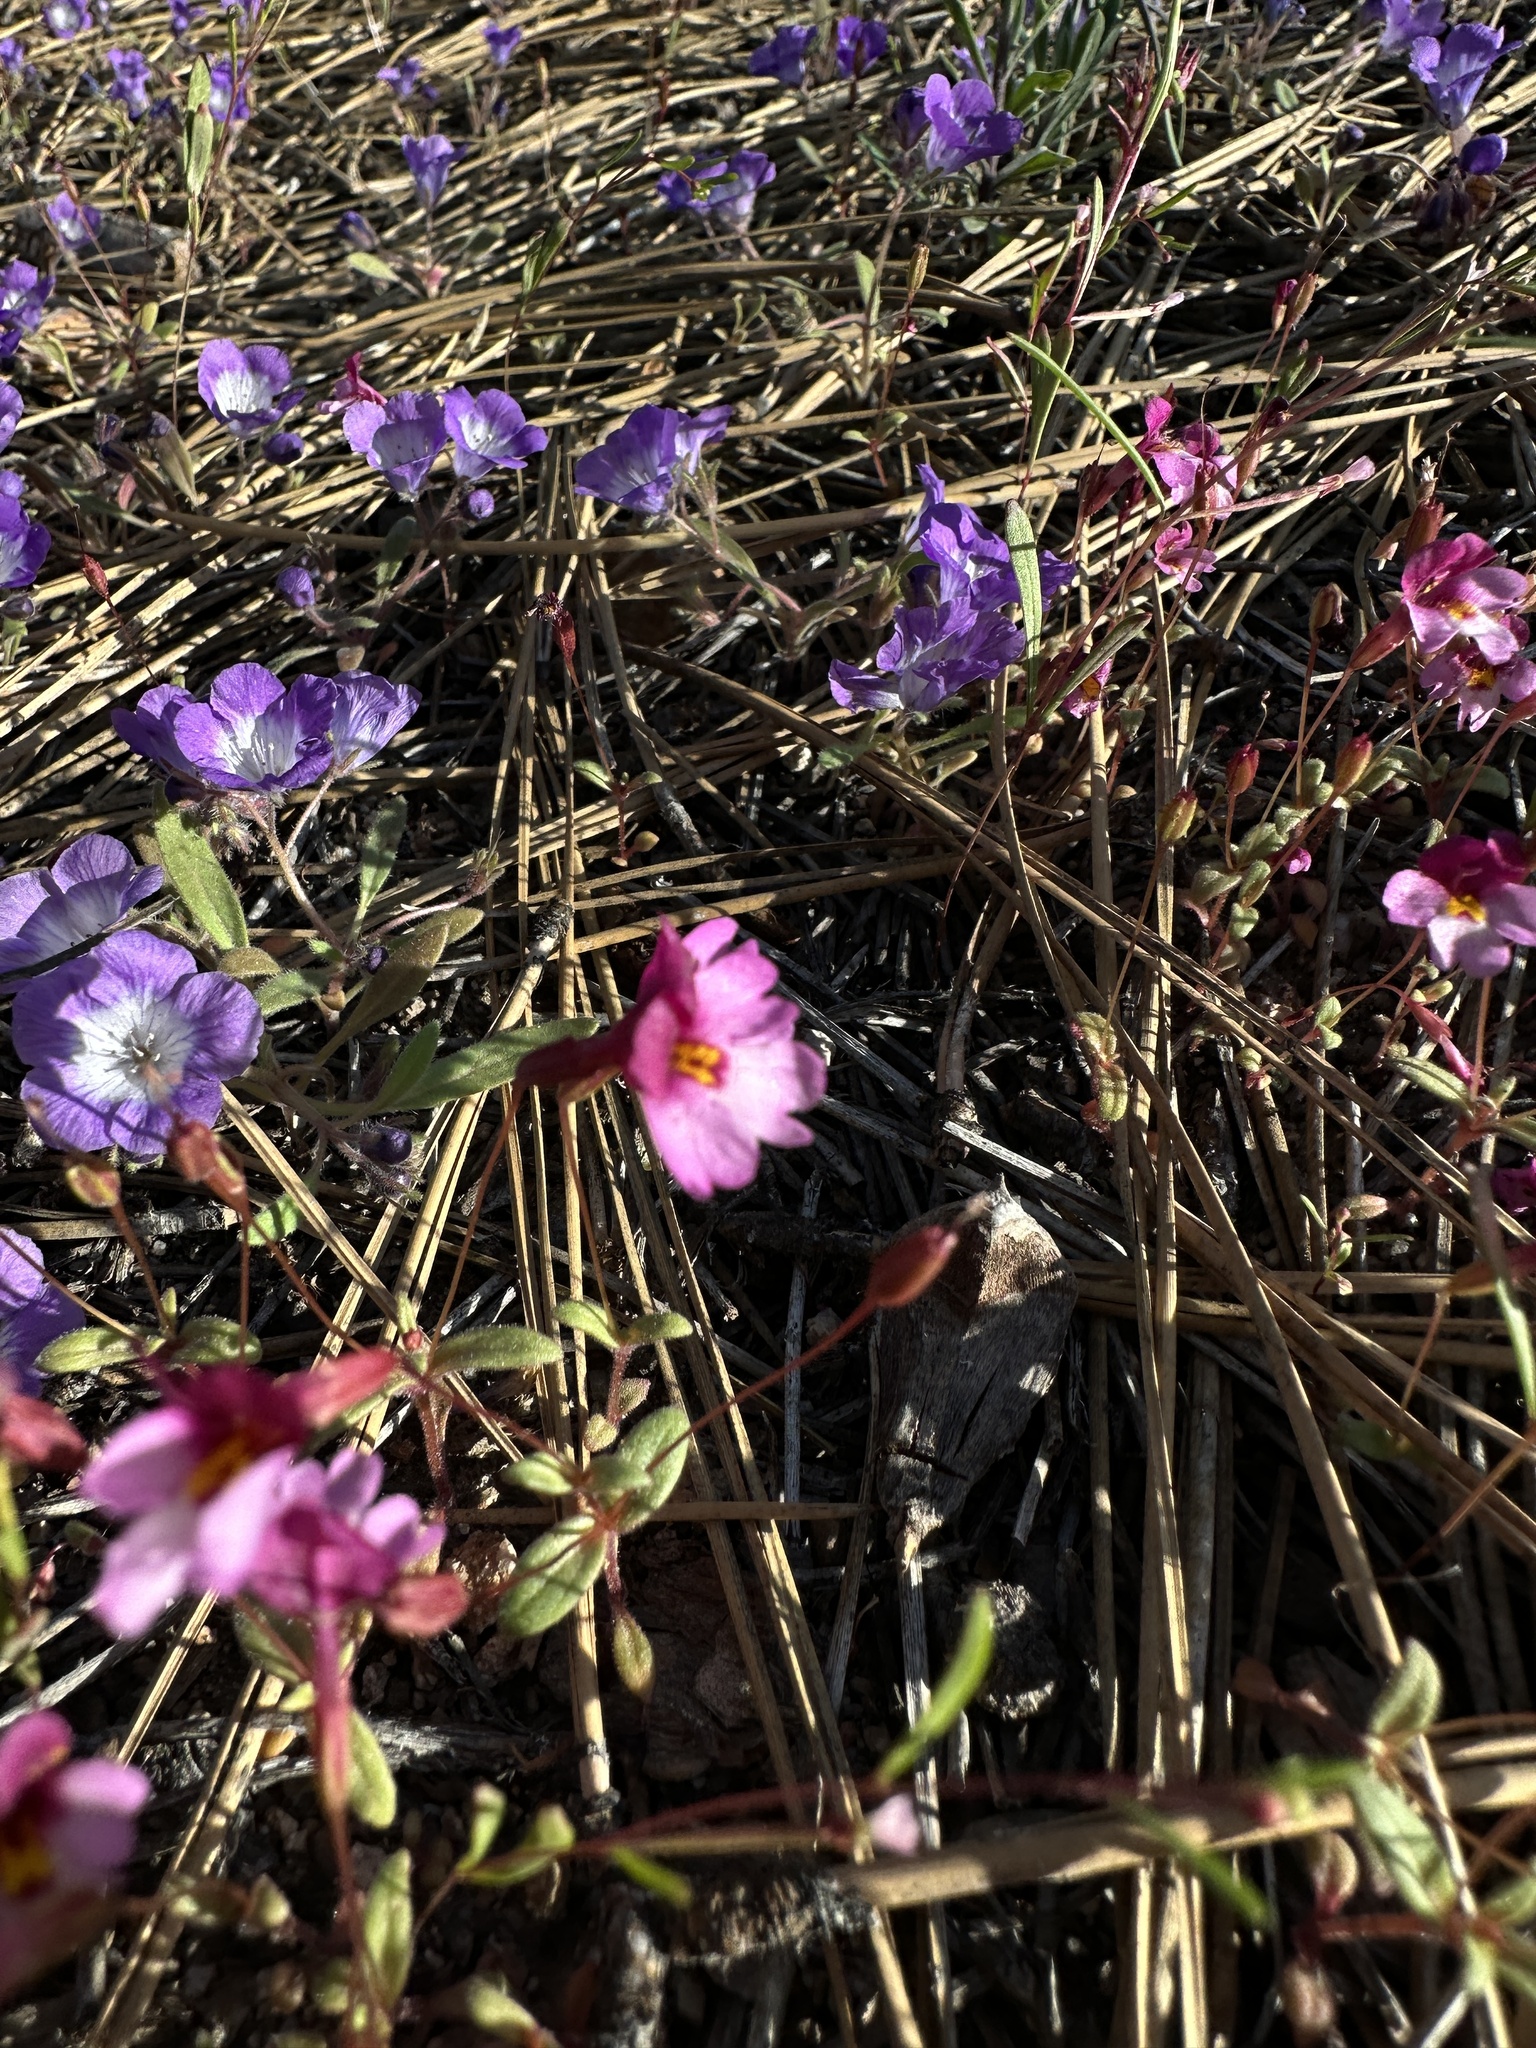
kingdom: Plantae
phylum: Tracheophyta
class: Magnoliopsida
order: Lamiales
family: Phrymaceae
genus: Erythranthe
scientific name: Erythranthe purpurea
